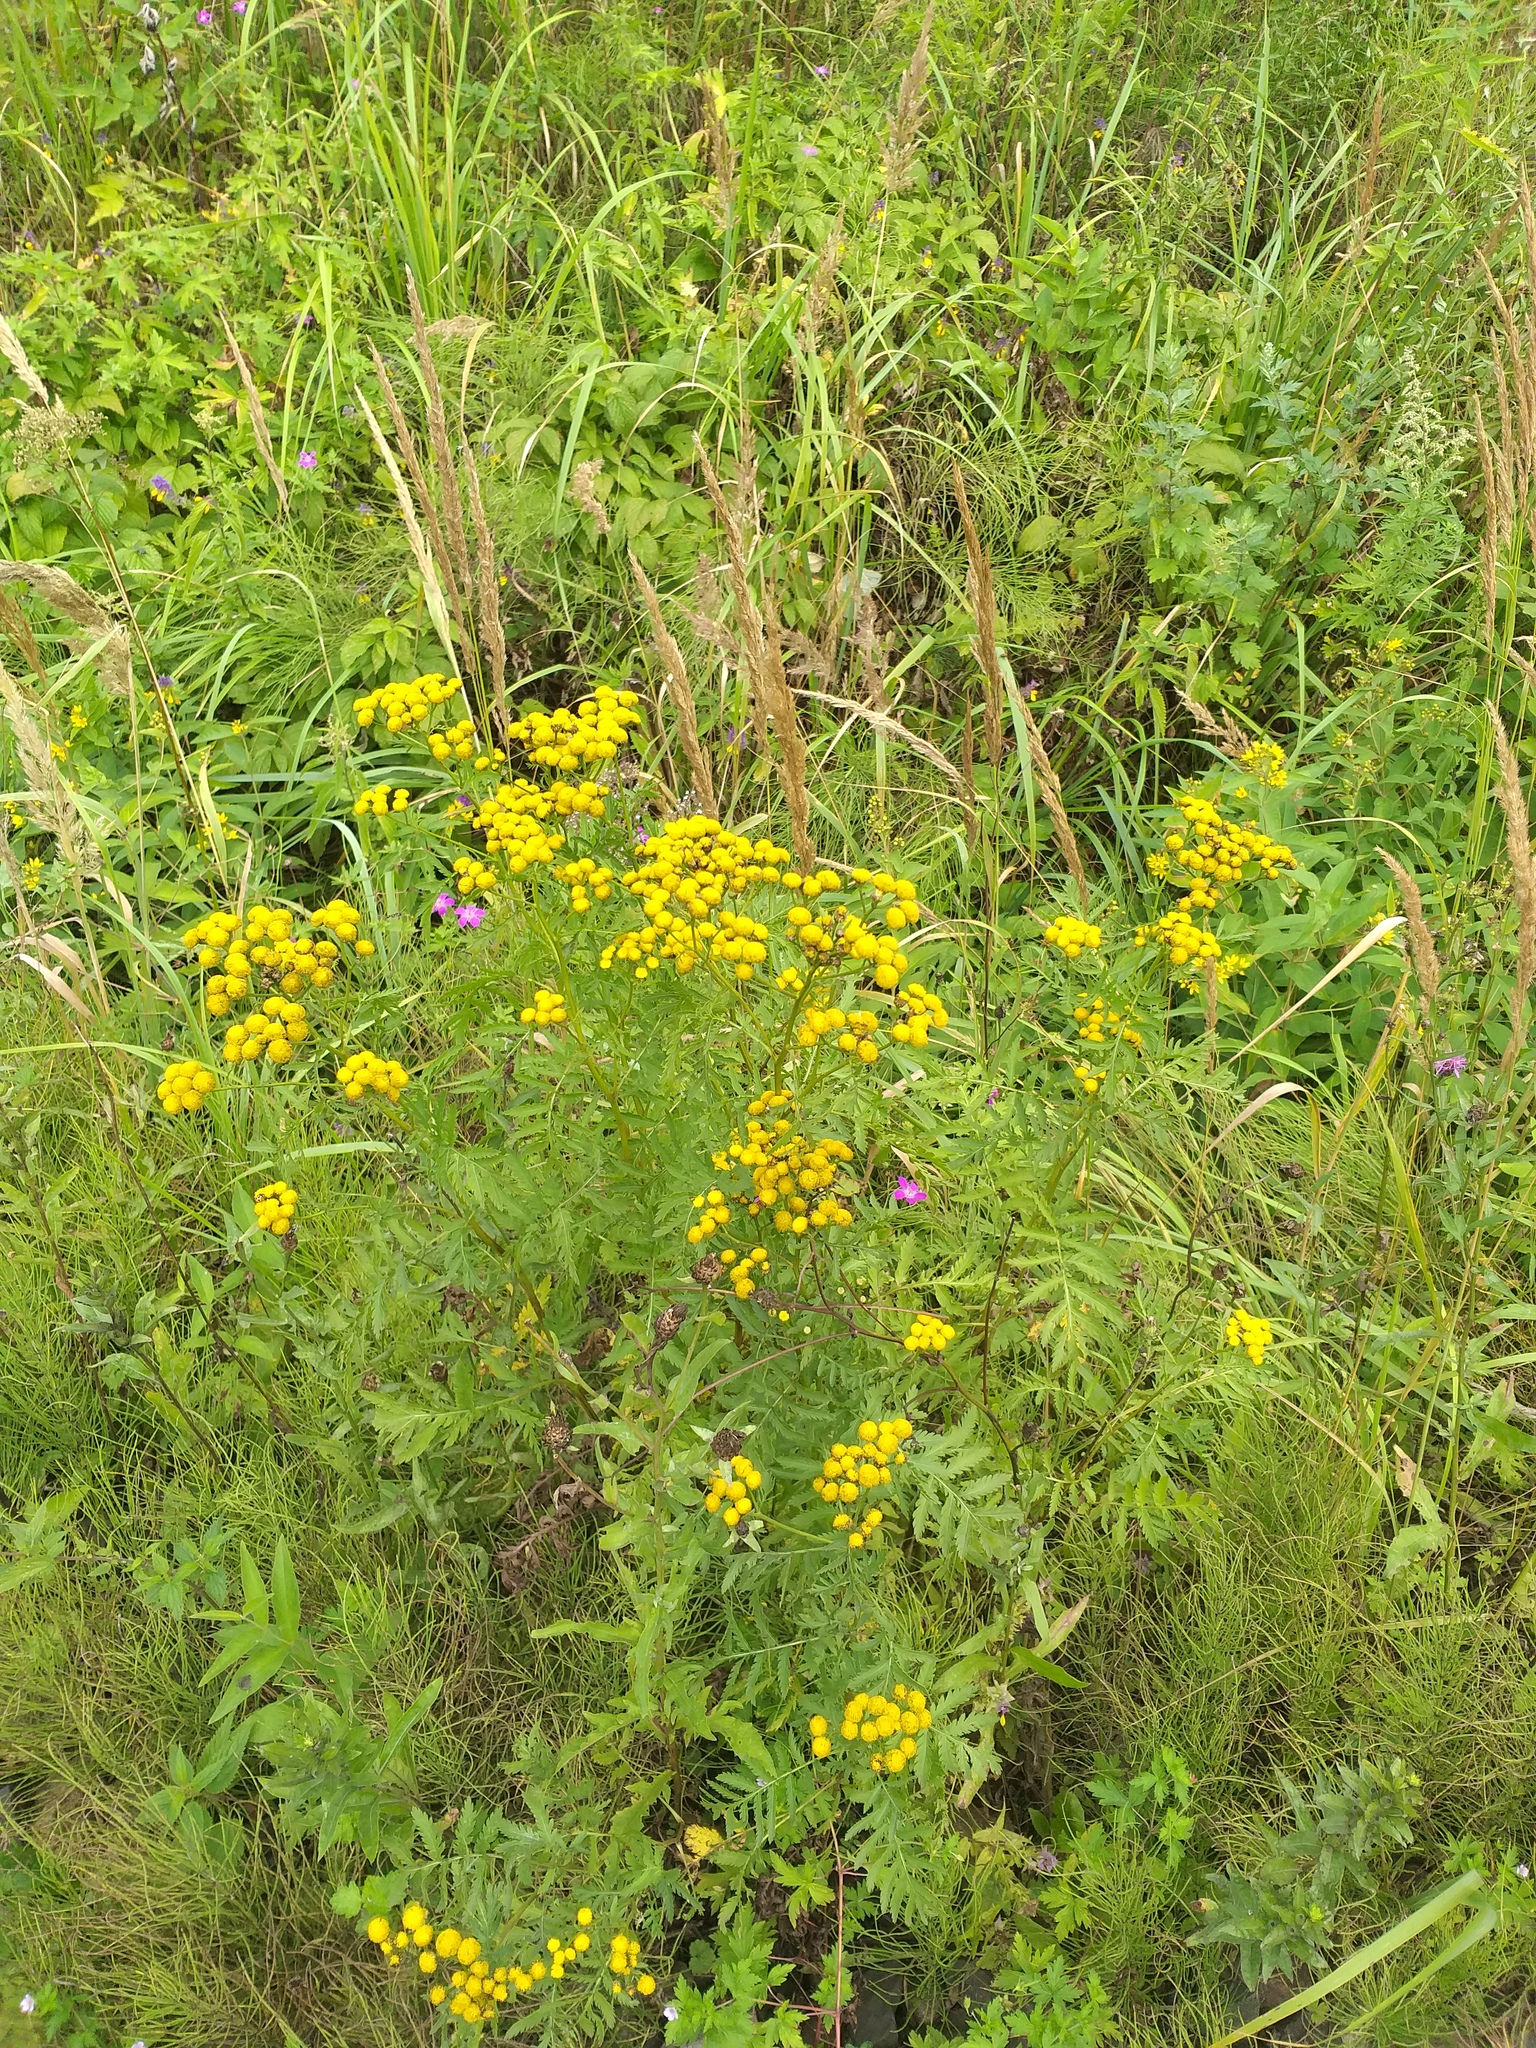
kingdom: Plantae
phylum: Tracheophyta
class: Magnoliopsida
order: Asterales
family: Asteraceae
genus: Tanacetum
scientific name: Tanacetum vulgare
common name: Common tansy
